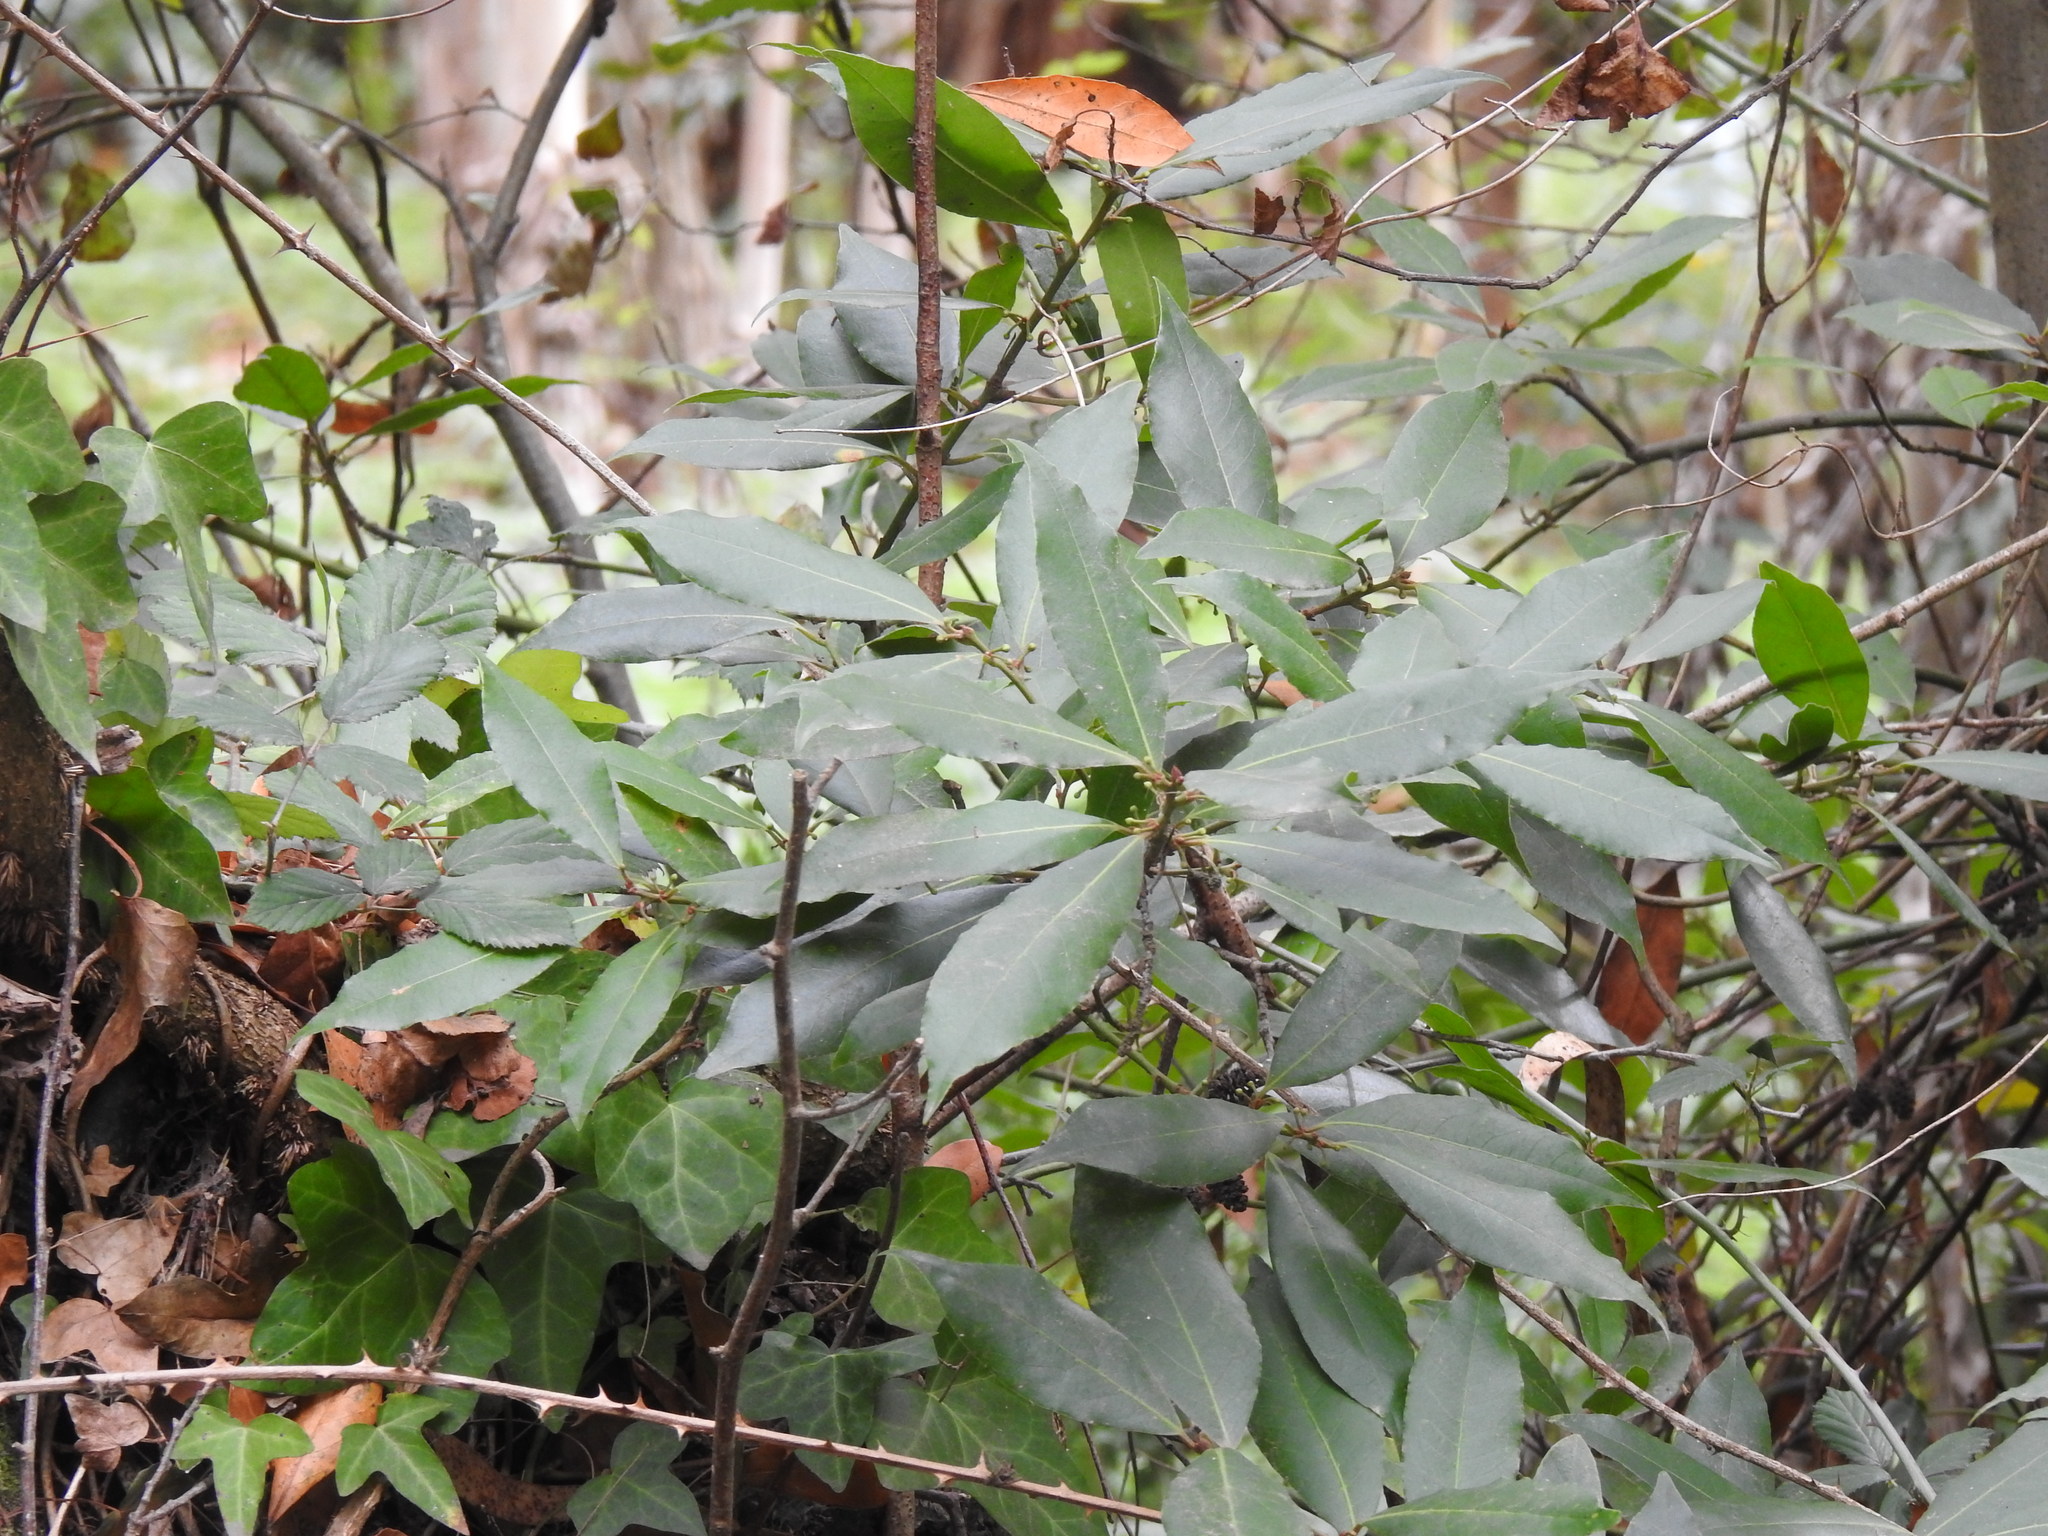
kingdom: Plantae
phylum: Tracheophyta
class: Magnoliopsida
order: Laurales
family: Lauraceae
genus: Laurus
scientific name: Laurus nobilis
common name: Bay
